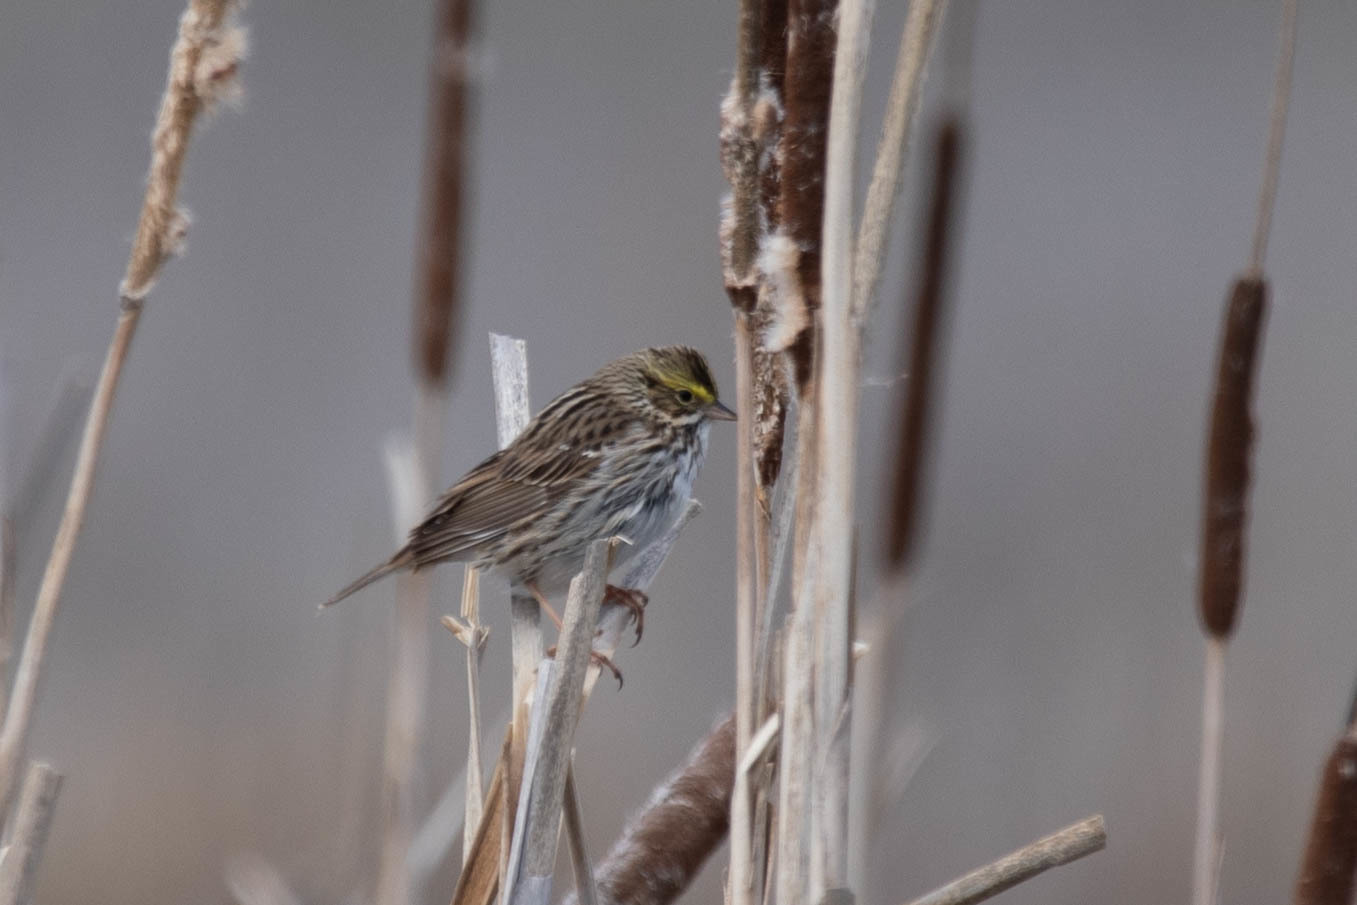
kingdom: Animalia
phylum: Chordata
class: Aves
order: Passeriformes
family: Passerellidae
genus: Passerculus
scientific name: Passerculus sandwichensis
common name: Savannah sparrow
